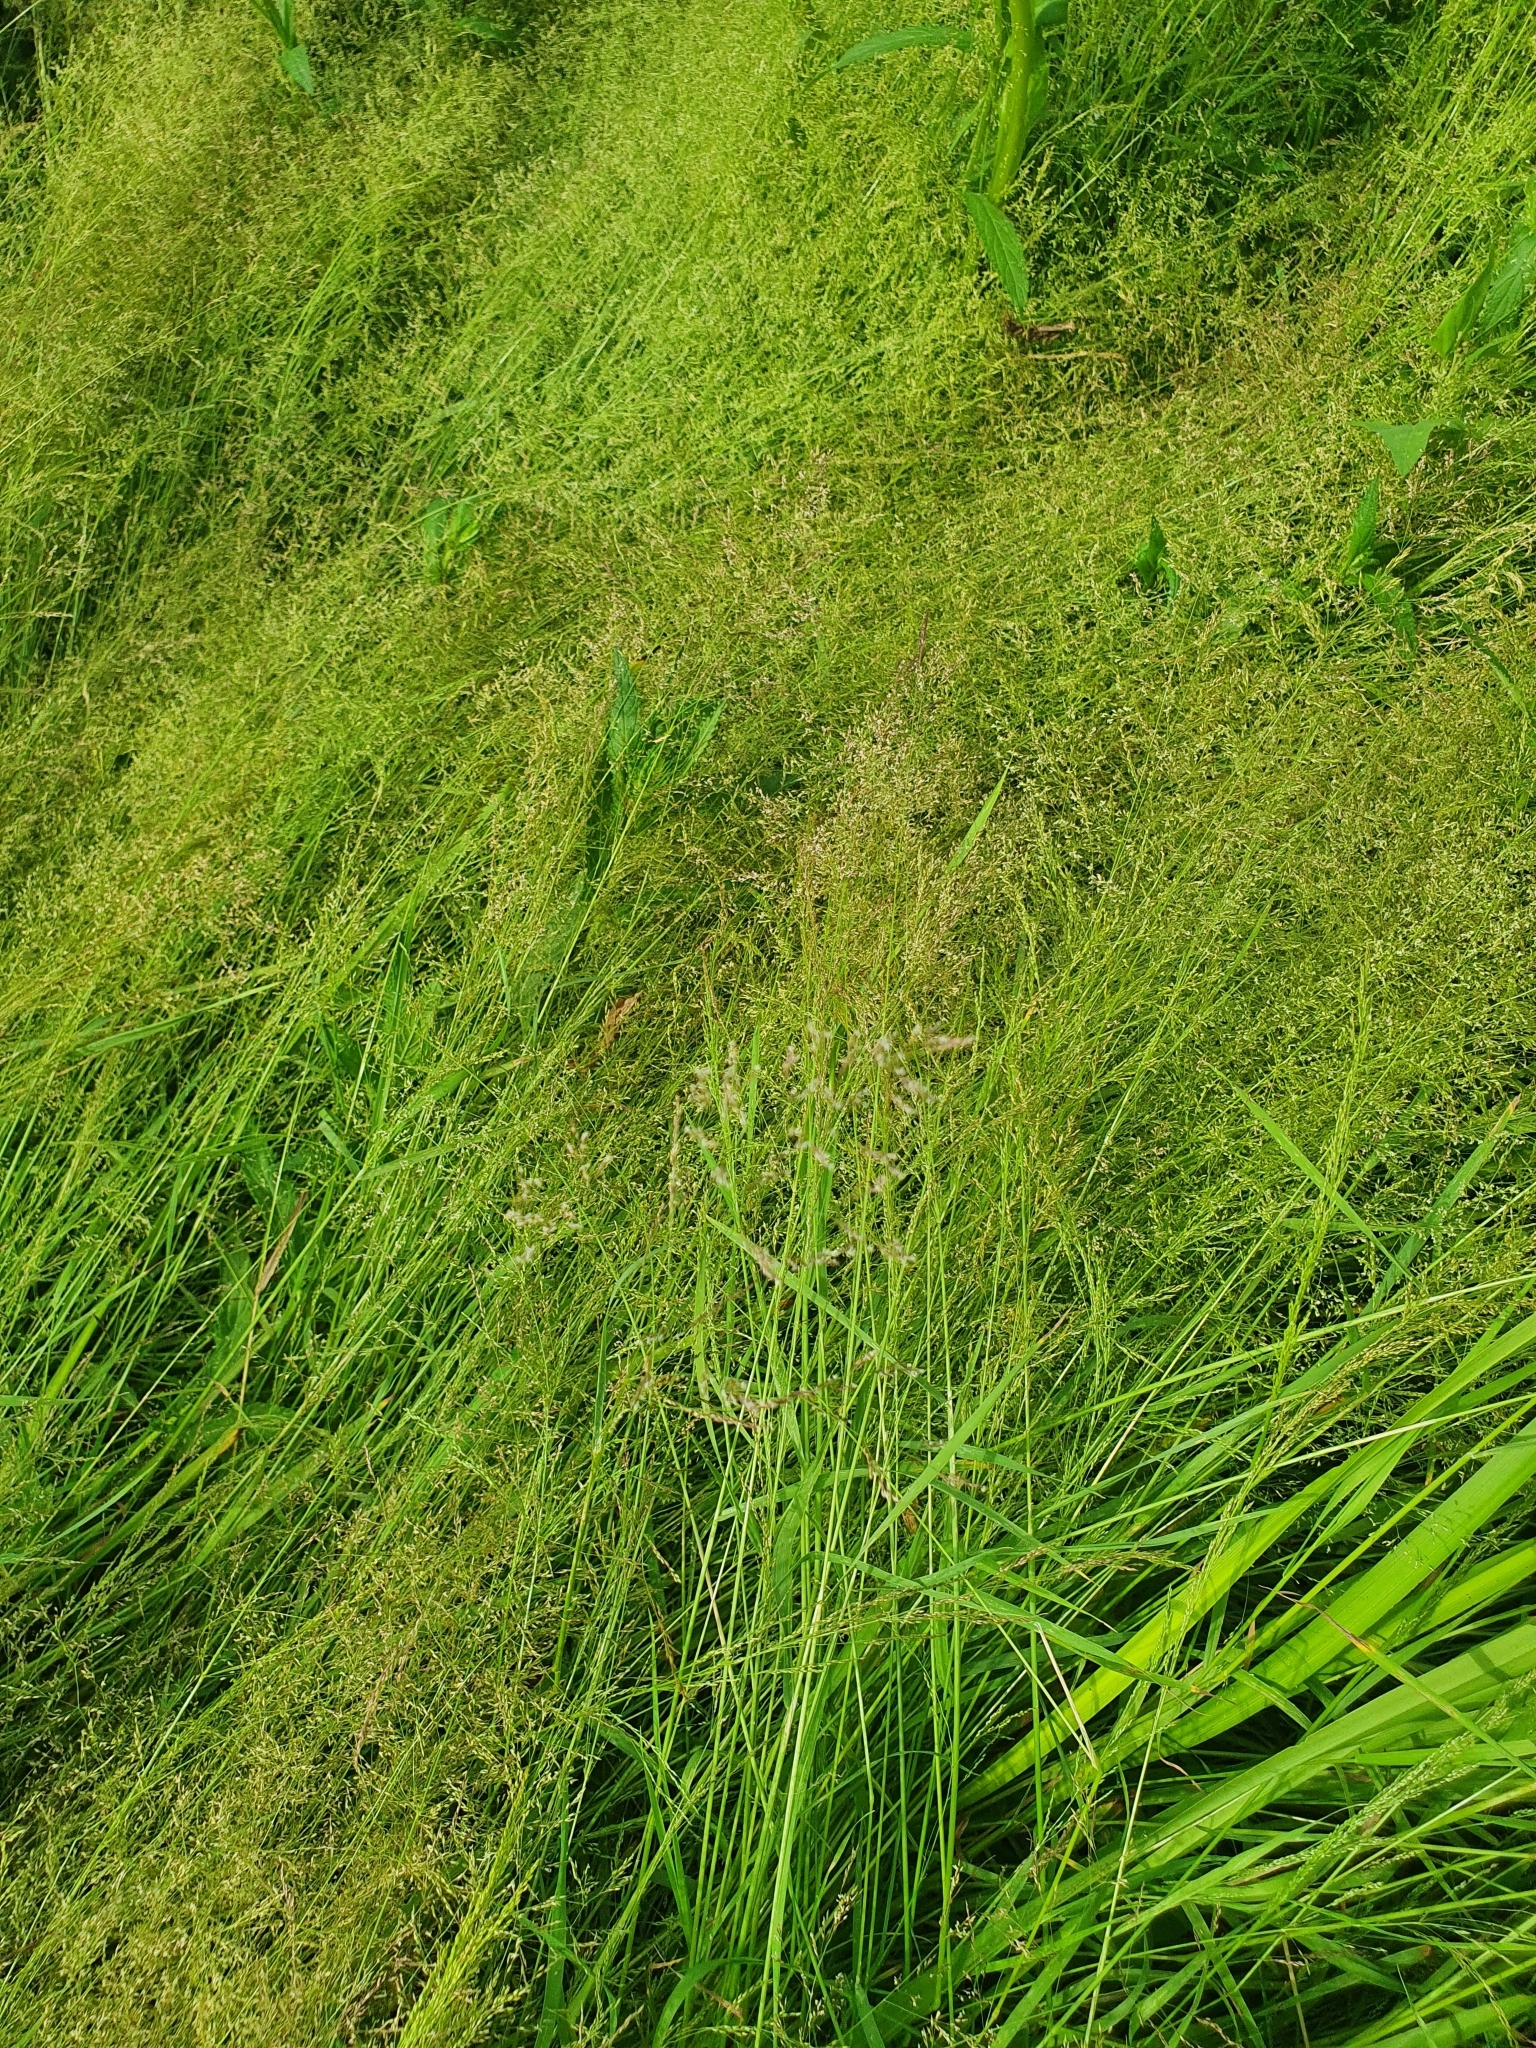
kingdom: Plantae
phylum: Tracheophyta
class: Liliopsida
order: Poales
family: Poaceae
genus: Agrostis
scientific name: Agrostis capillaris
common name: Colonial bentgrass
